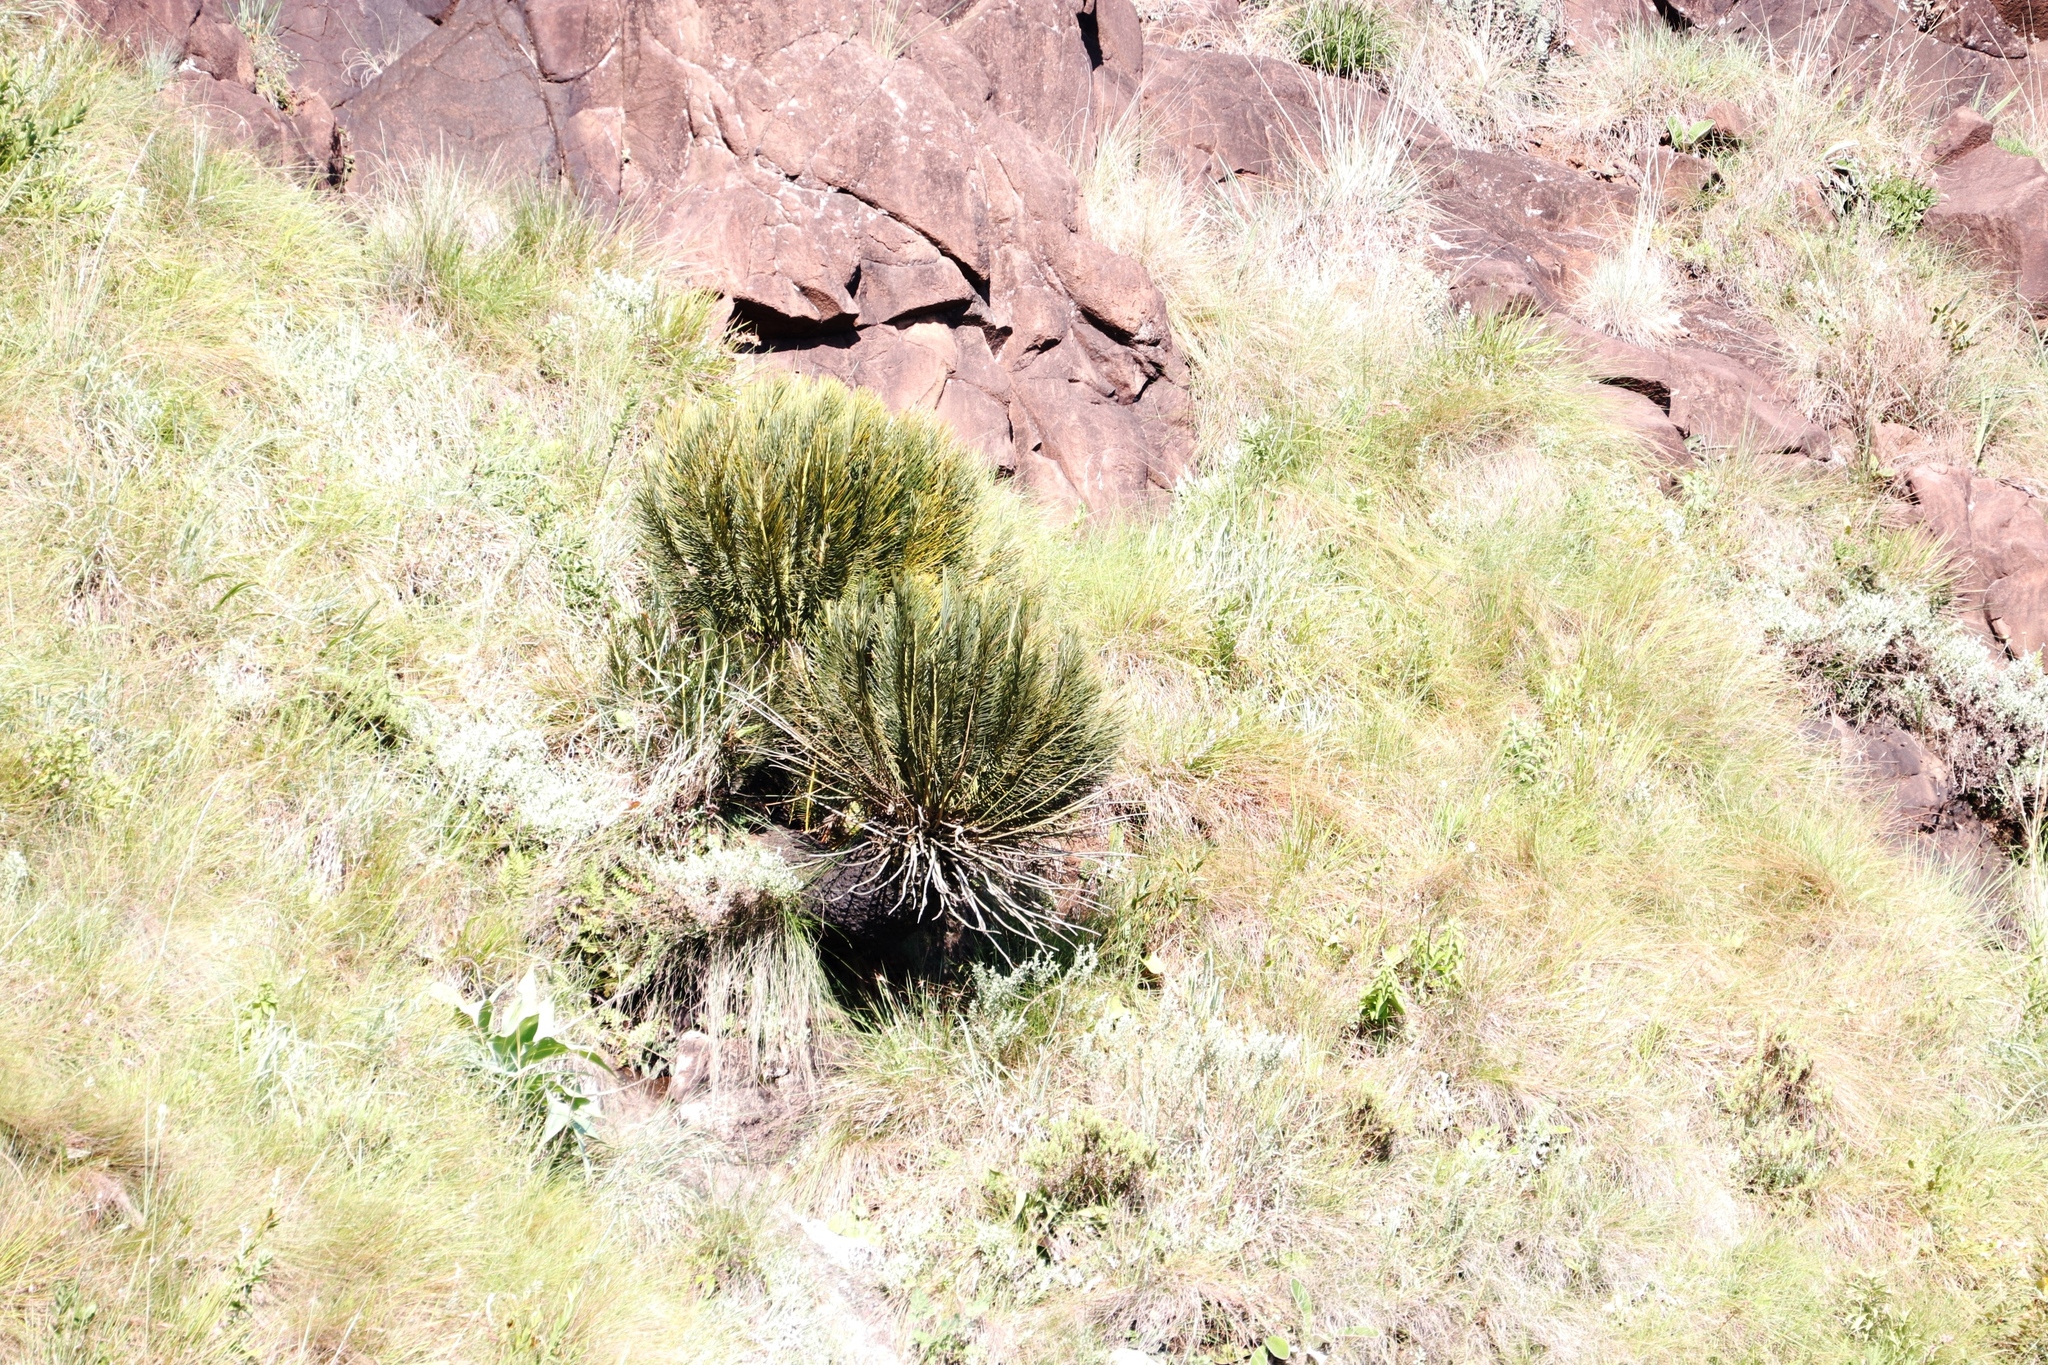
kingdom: Plantae
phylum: Tracheophyta
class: Cycadopsida
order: Cycadales
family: Zamiaceae
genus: Encephalartos
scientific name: Encephalartos ghellinckii
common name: Drakensberg cycad
